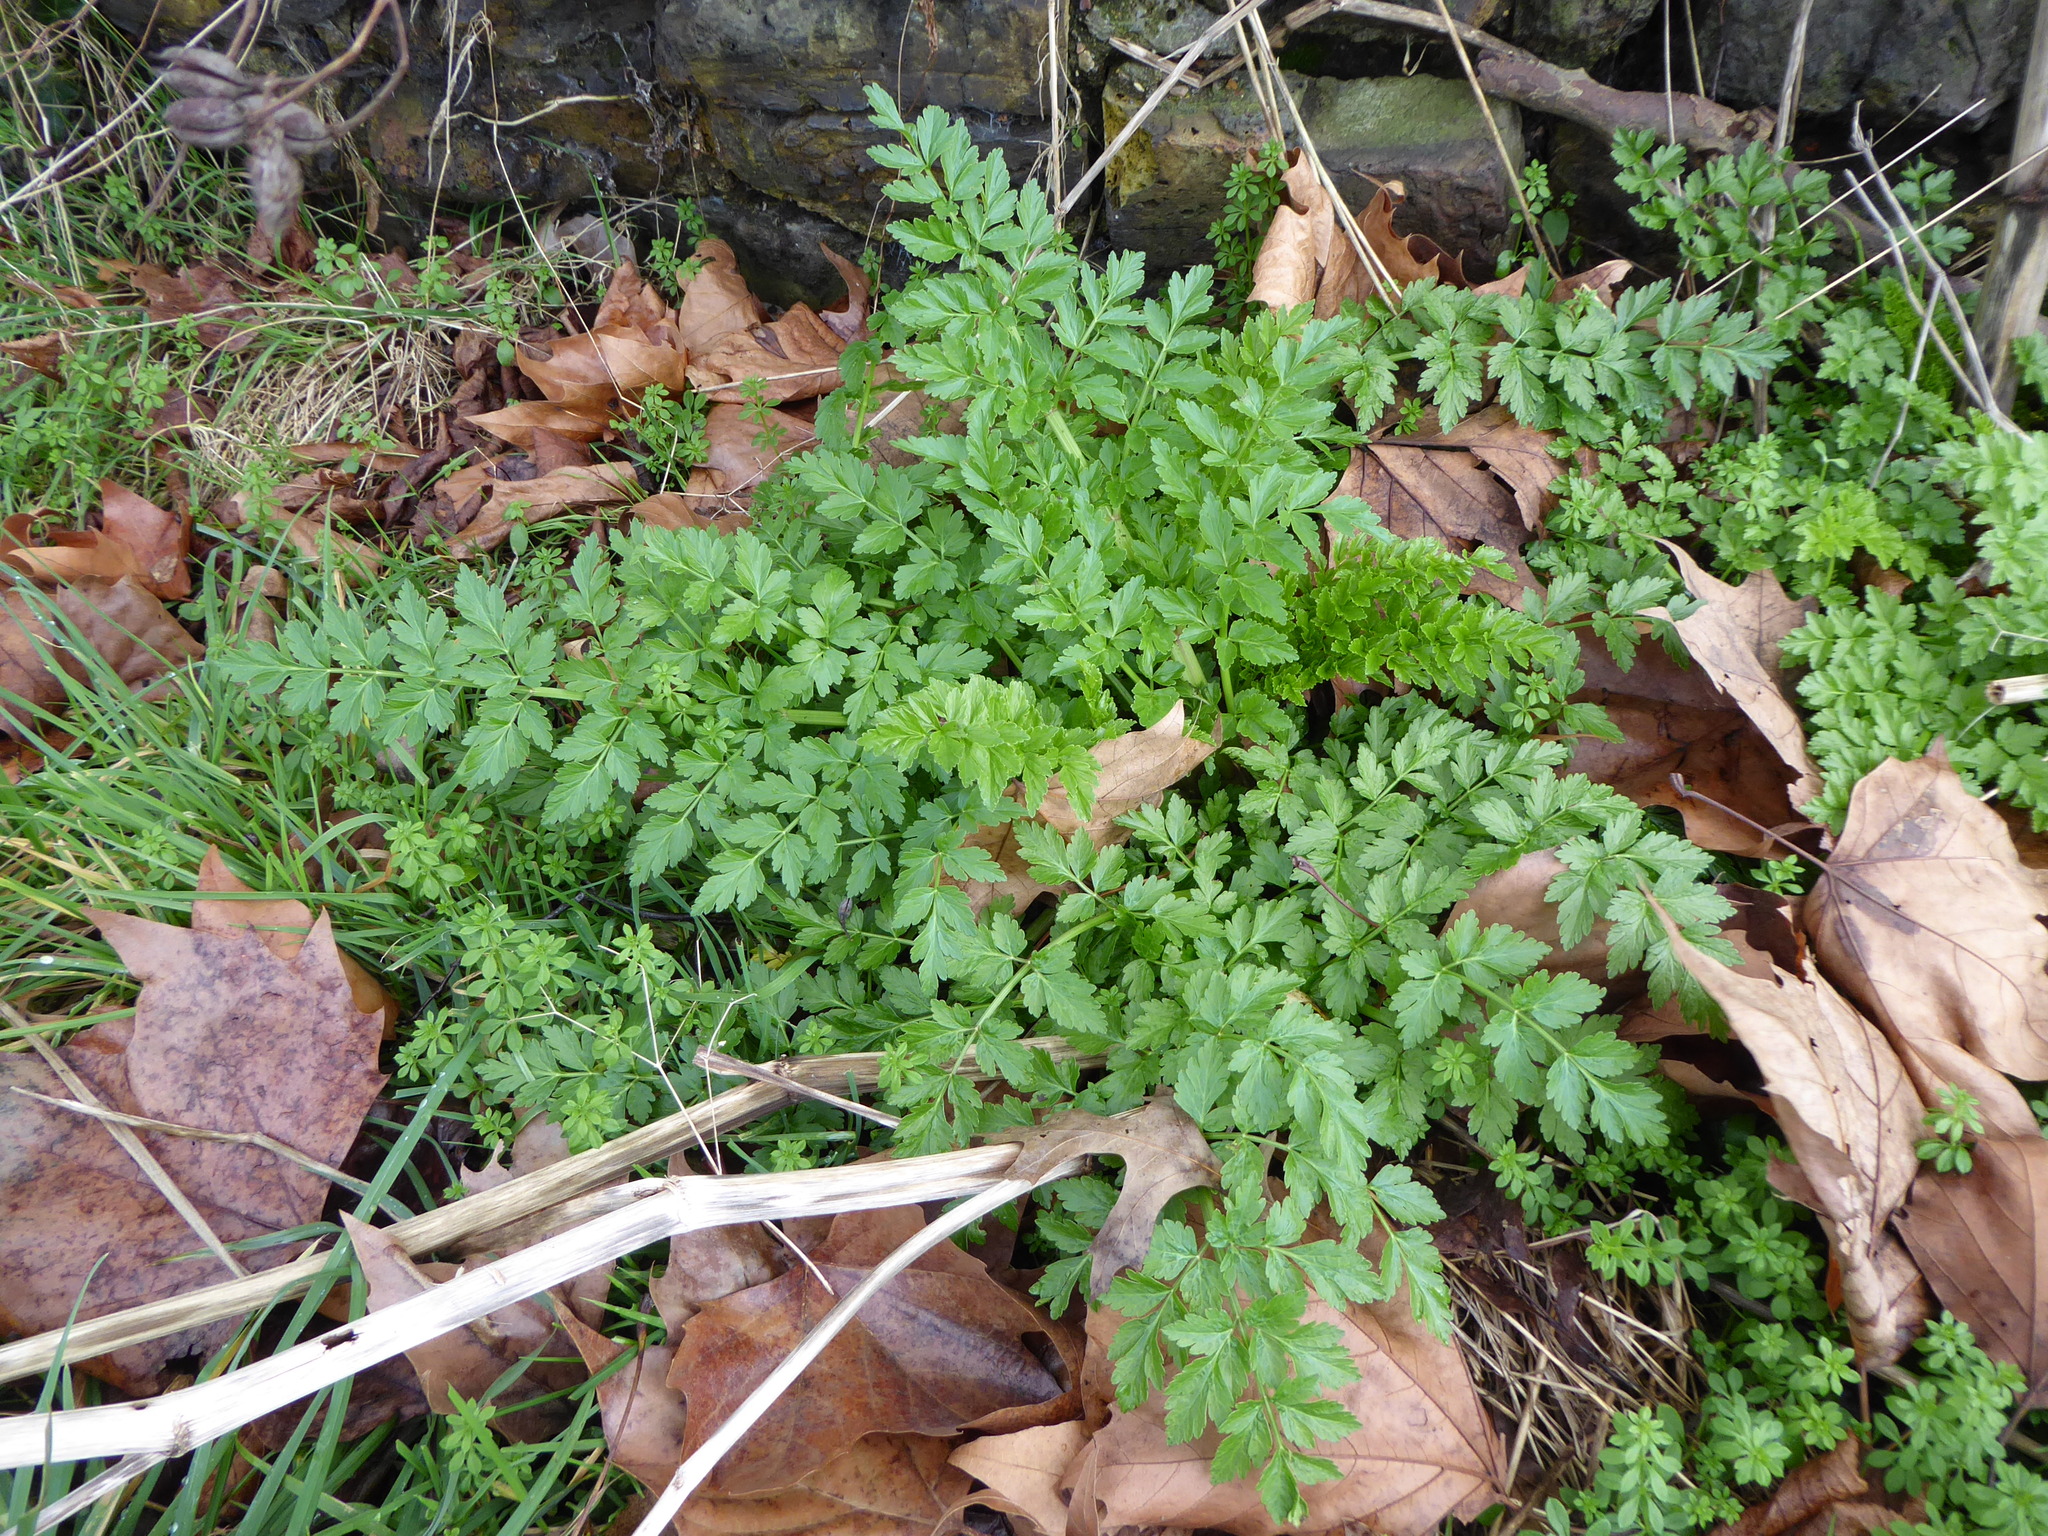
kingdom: Plantae
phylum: Tracheophyta
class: Magnoliopsida
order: Apiales
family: Apiaceae
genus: Oenanthe
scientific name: Oenanthe crocata
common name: Hemlock water-dropwort
